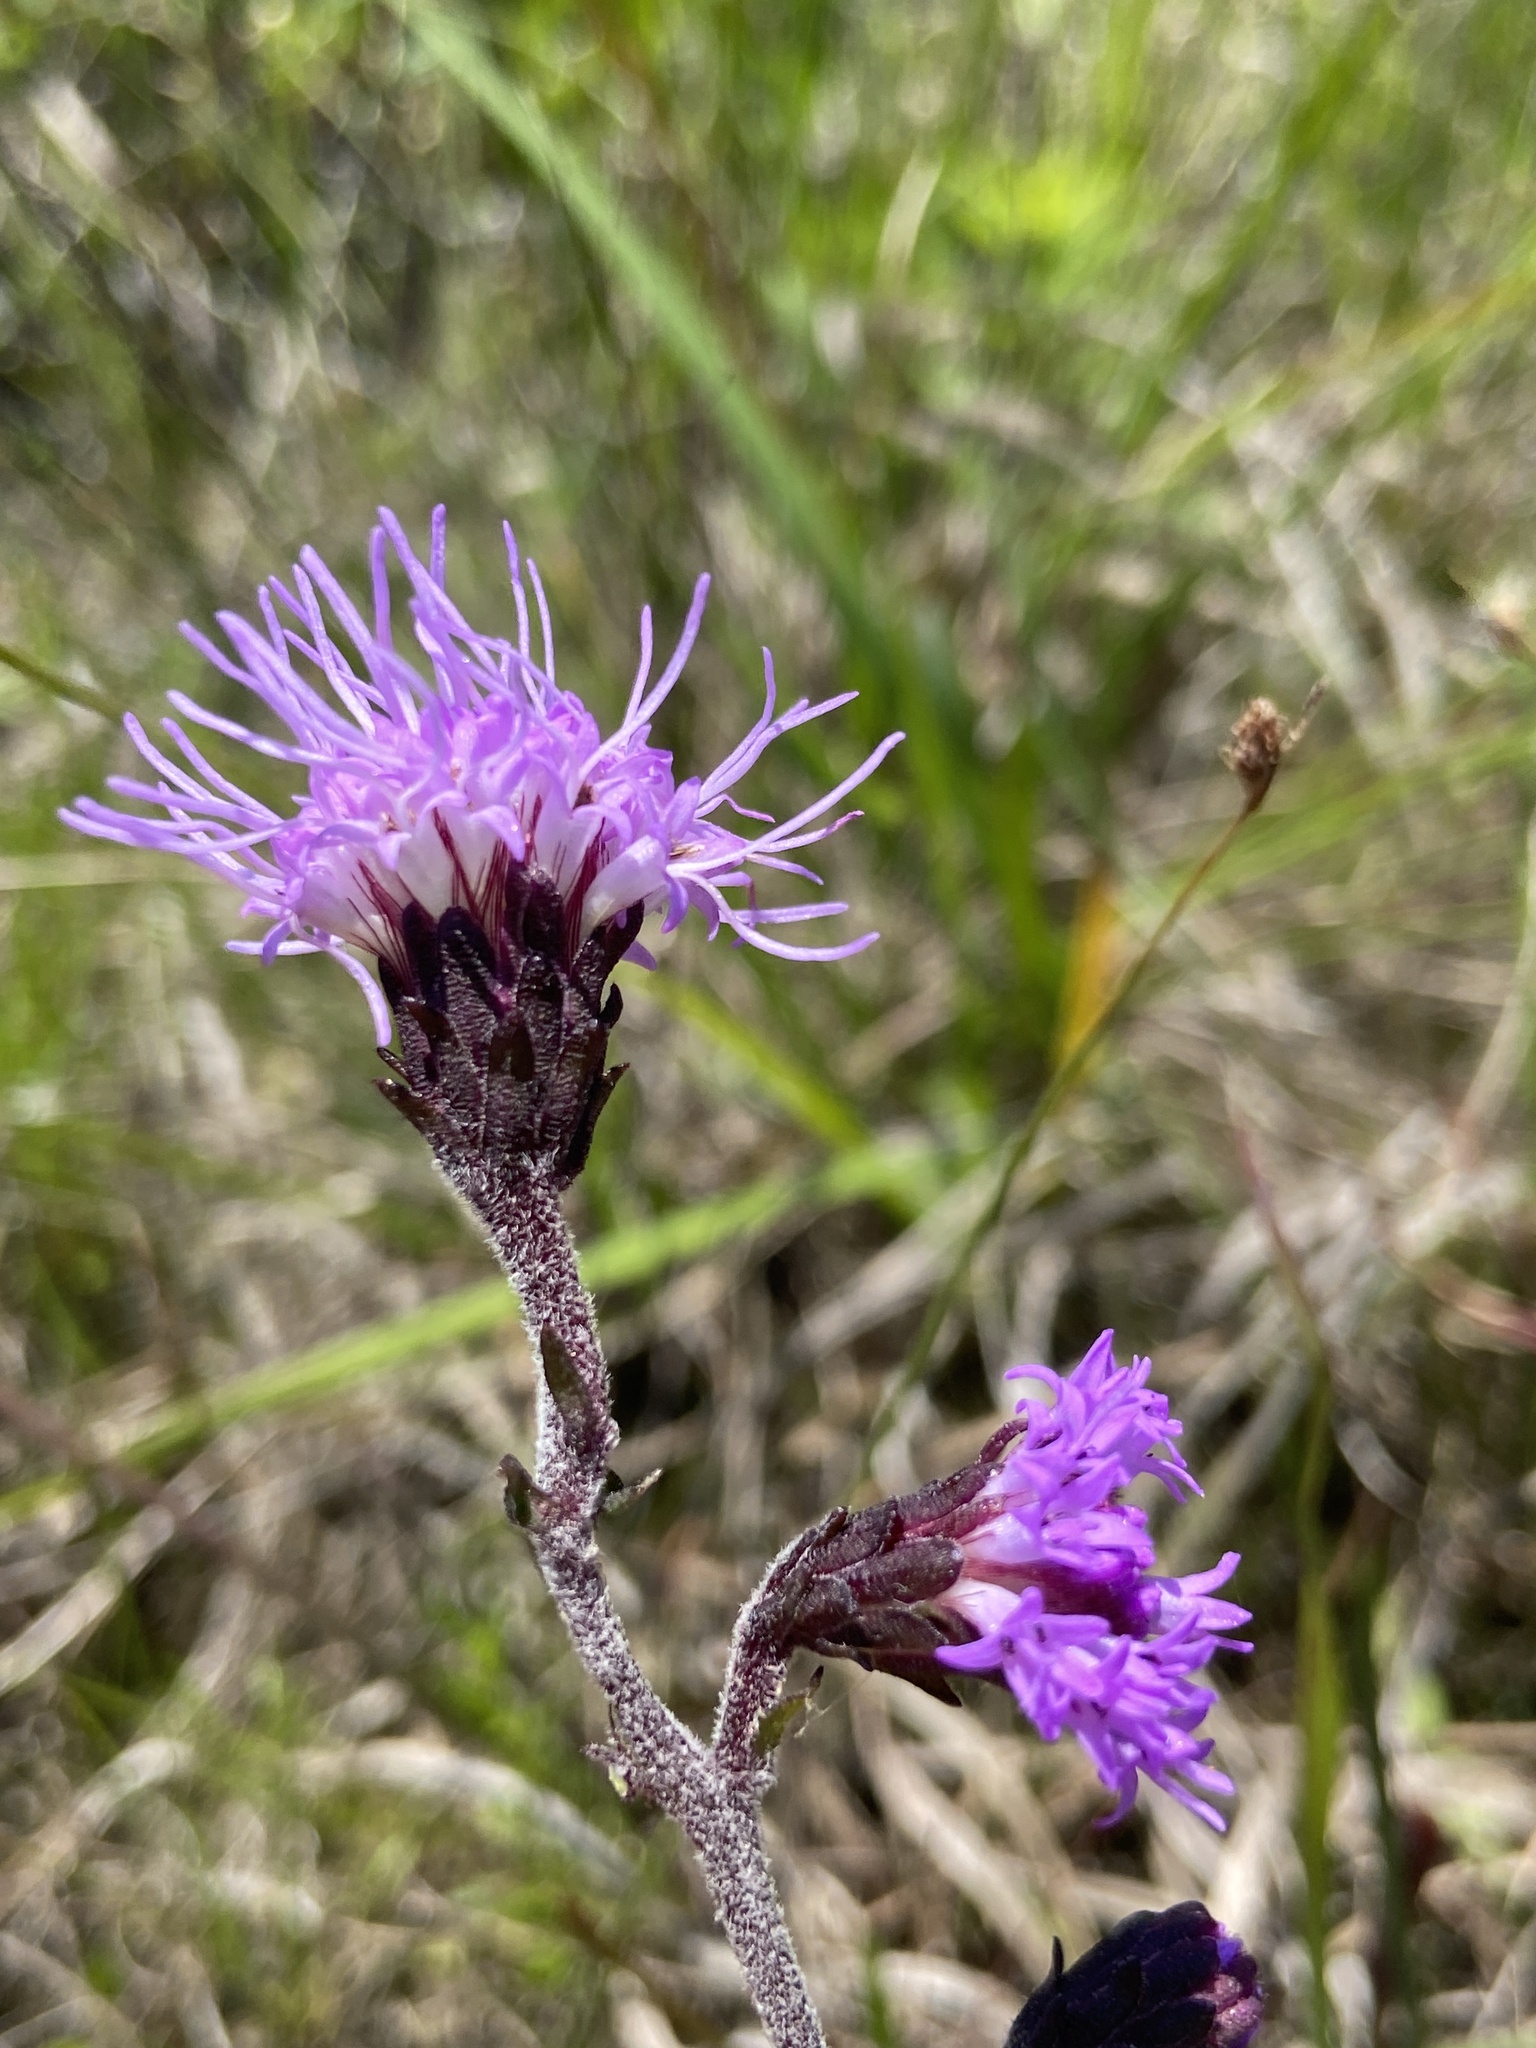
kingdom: Plantae
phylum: Tracheophyta
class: Magnoliopsida
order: Asterales
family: Asteraceae
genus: Liatris
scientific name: Liatris squarrulosa
